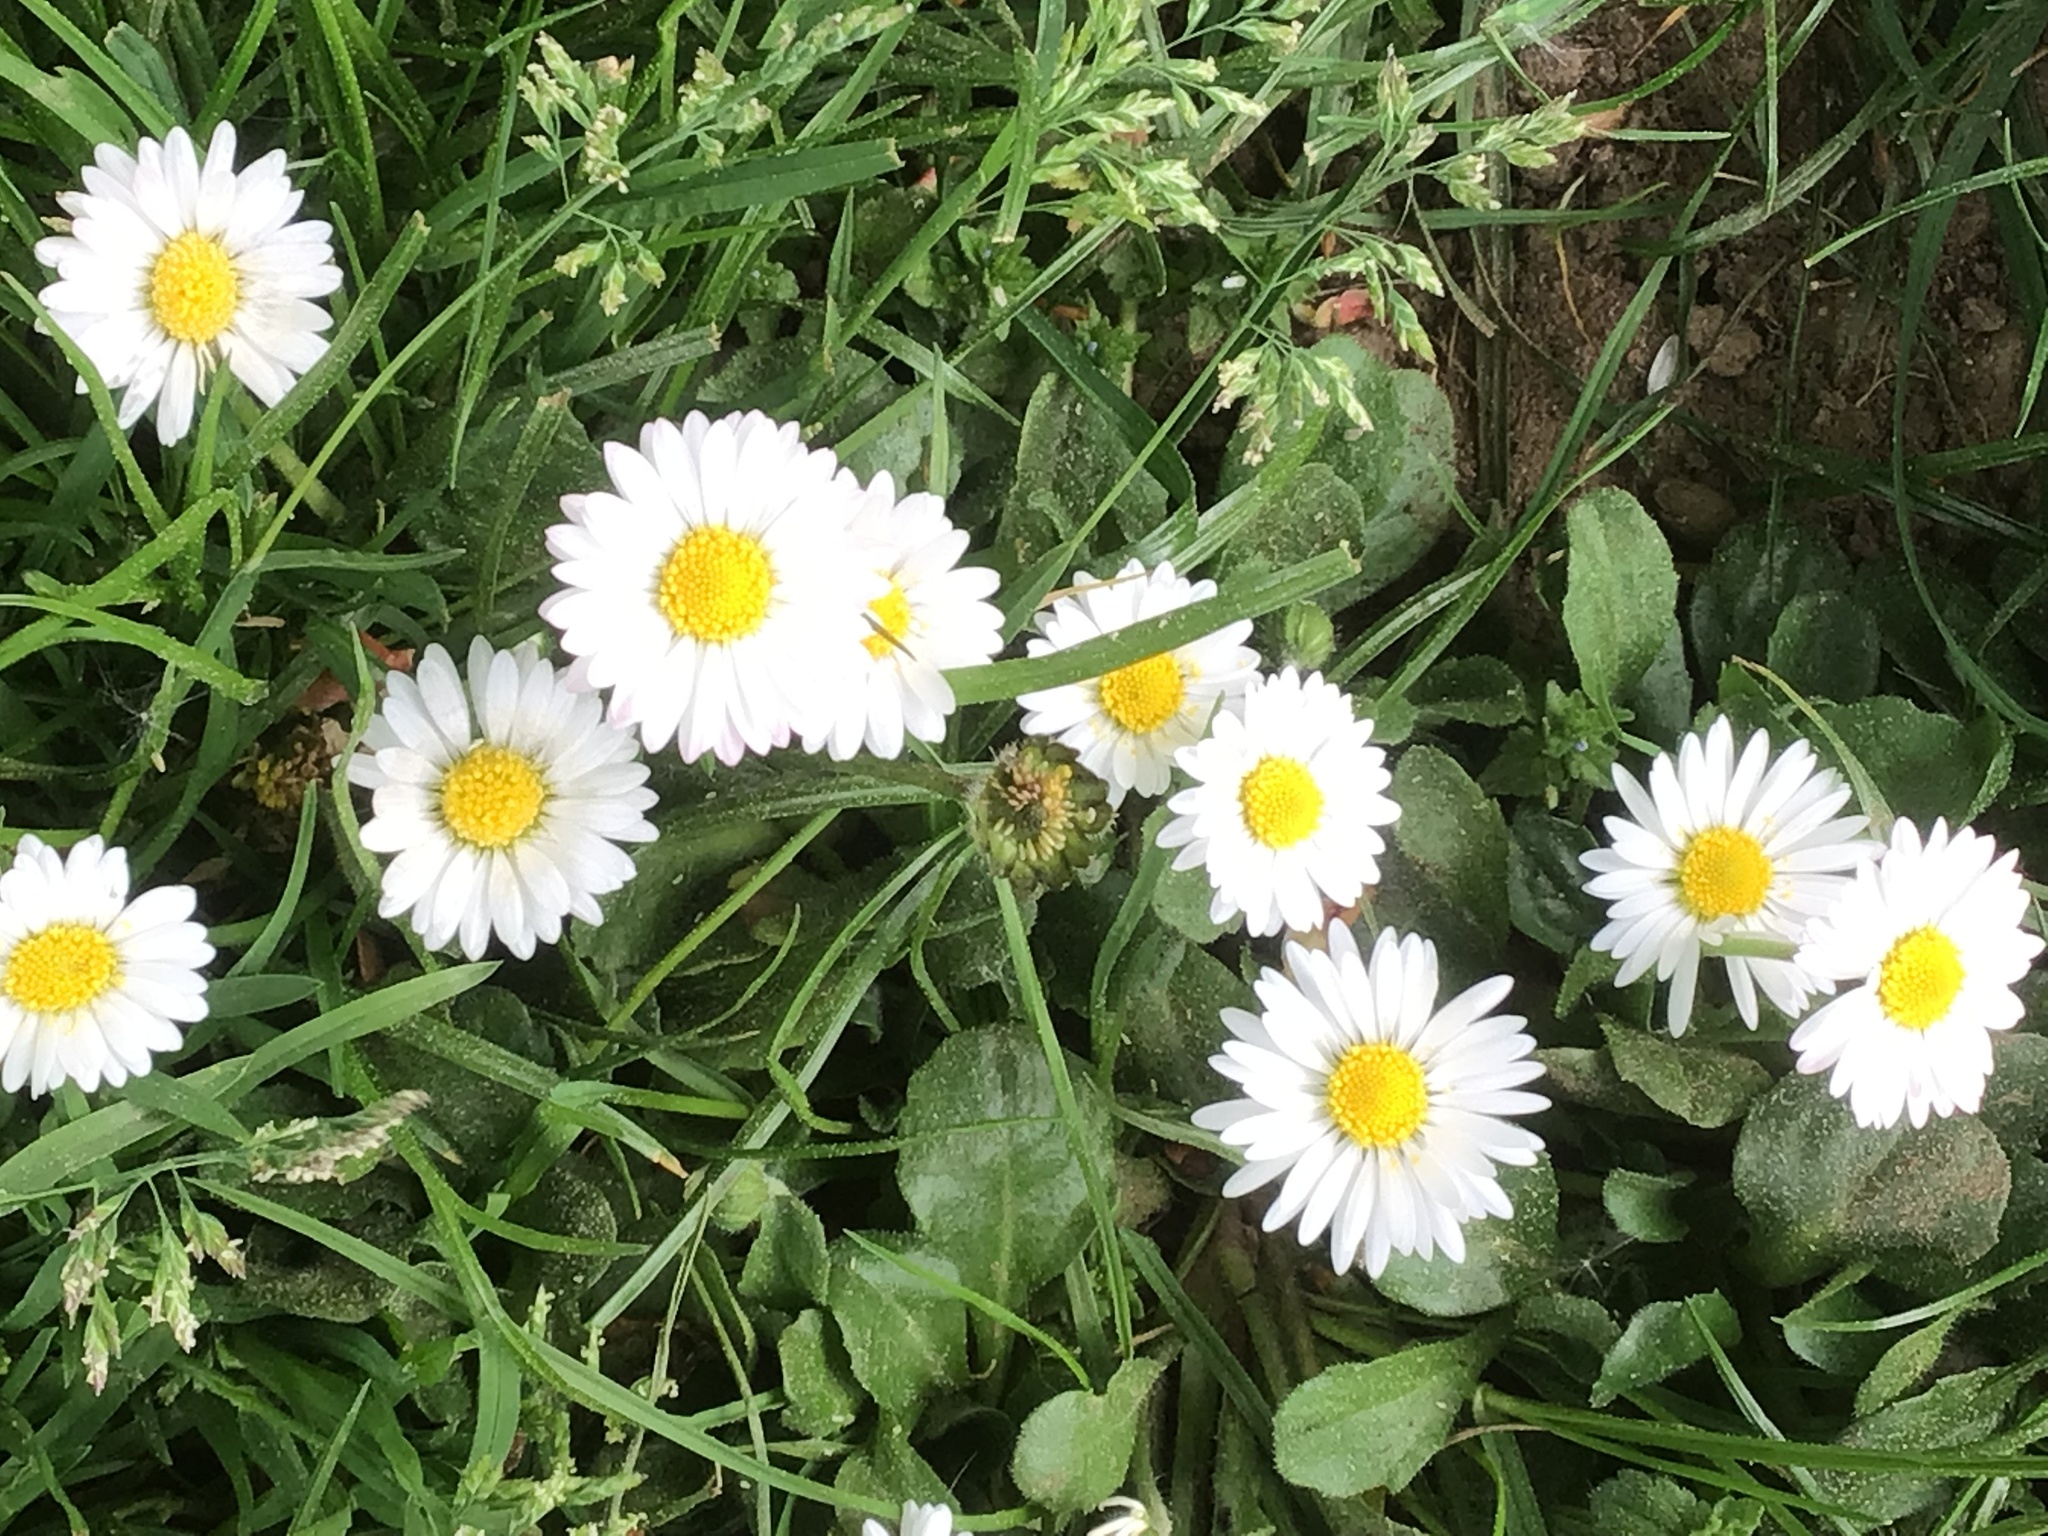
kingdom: Plantae
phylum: Tracheophyta
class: Magnoliopsida
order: Asterales
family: Asteraceae
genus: Bellis
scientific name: Bellis perennis
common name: Lawndaisy
